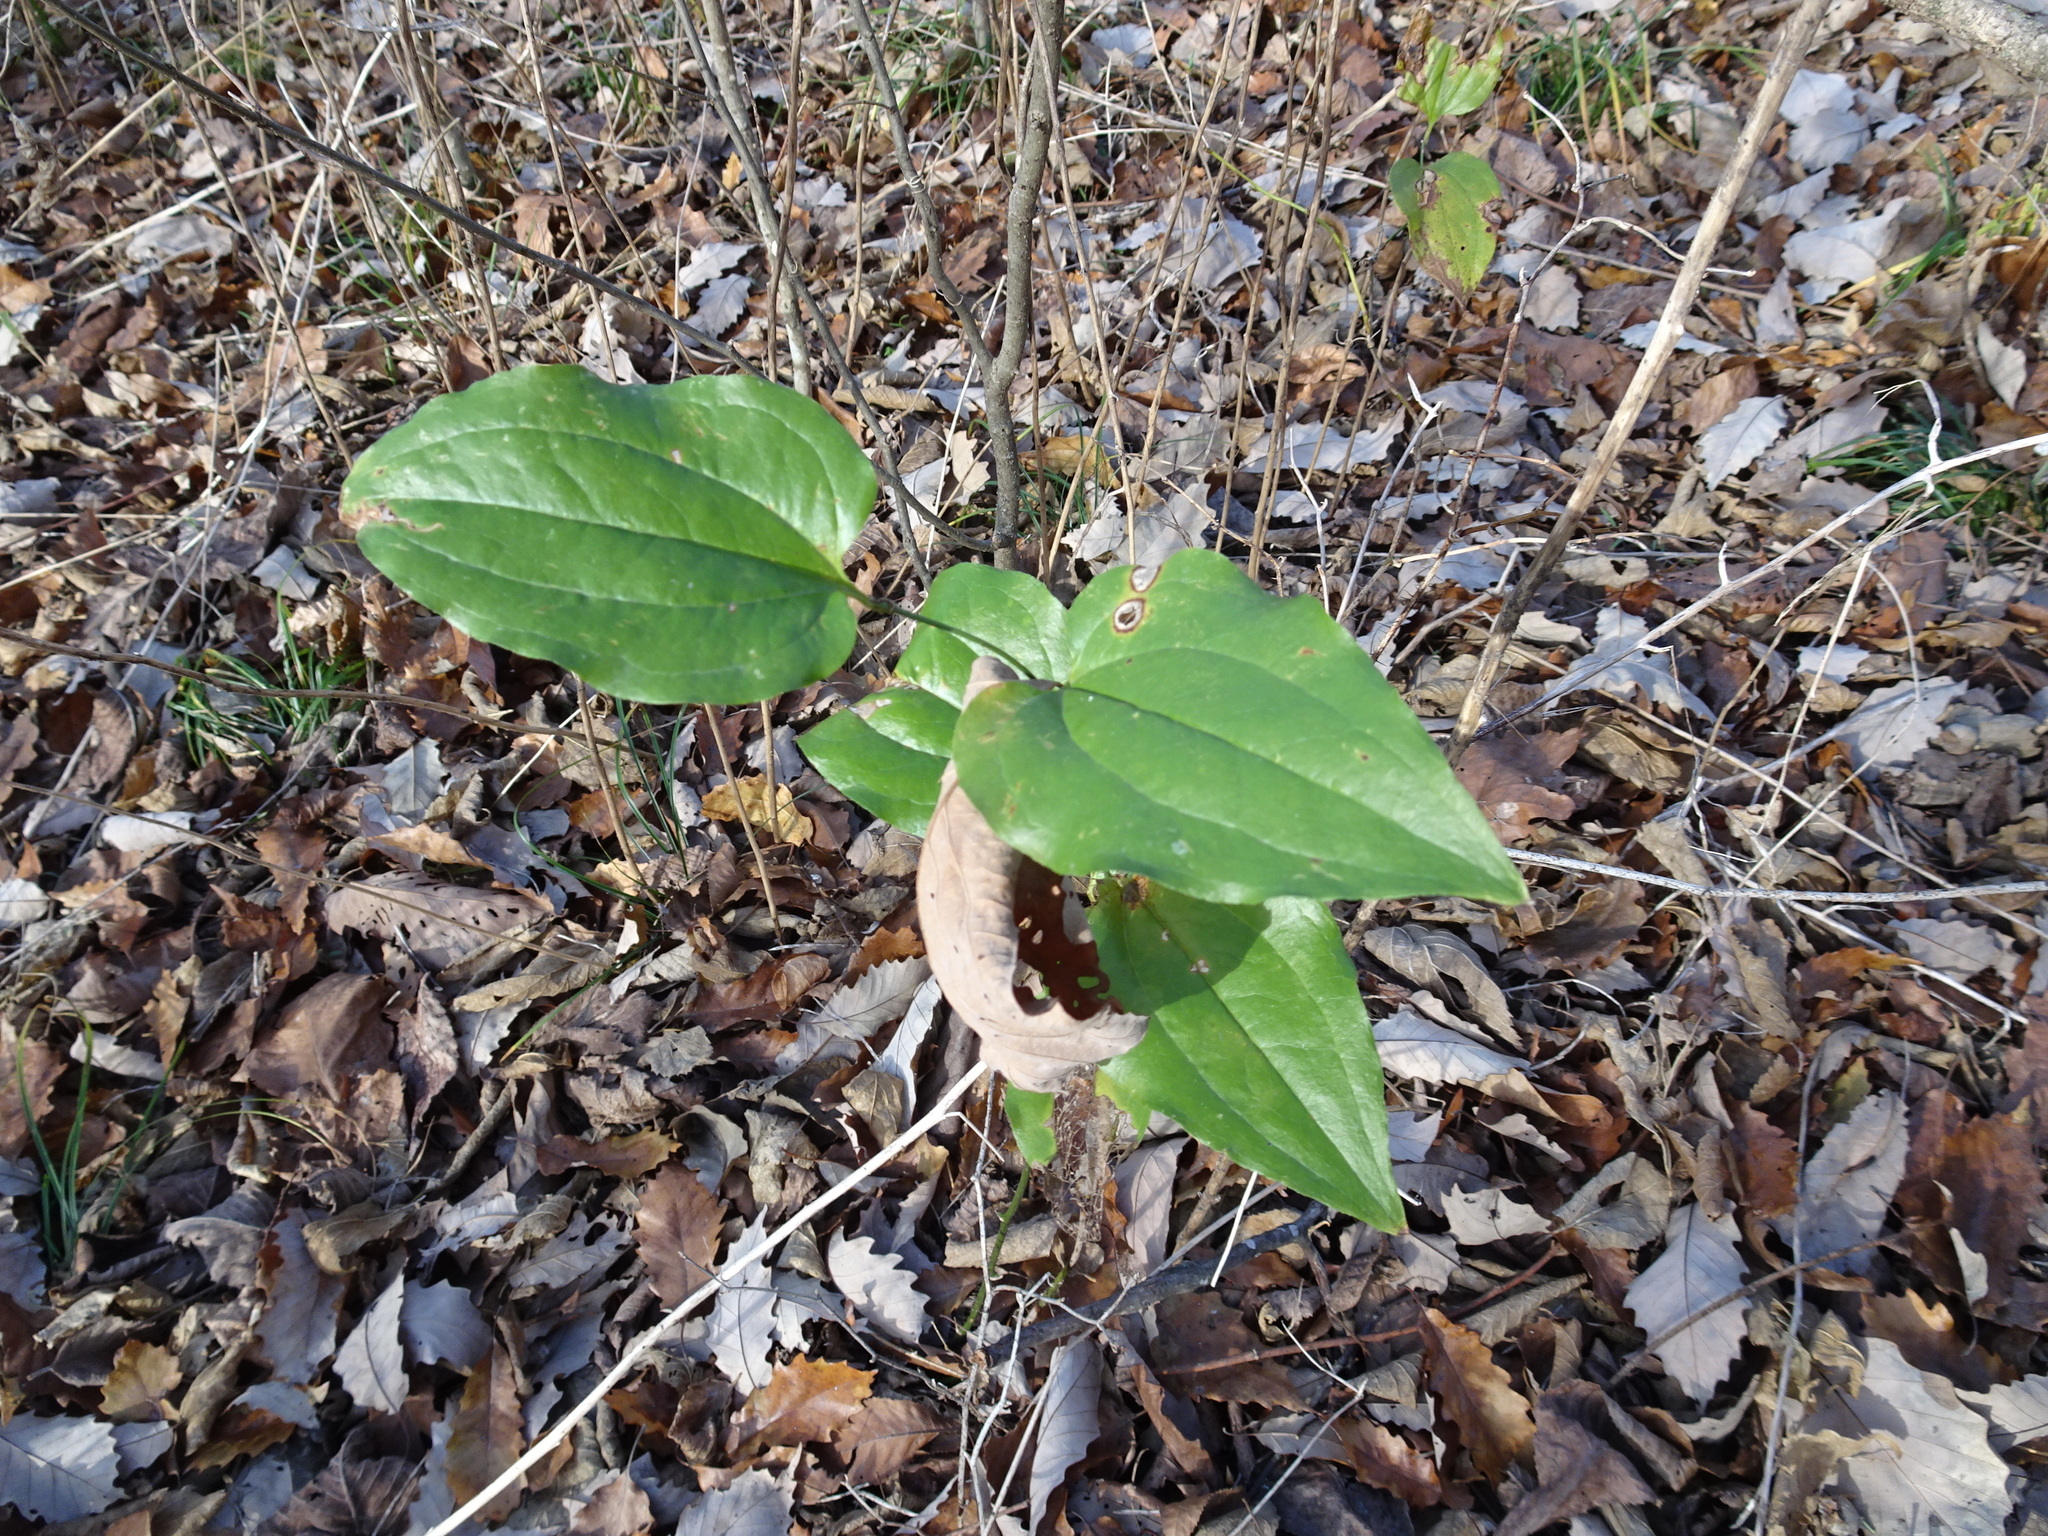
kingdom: Plantae
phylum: Tracheophyta
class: Liliopsida
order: Liliales
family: Smilacaceae
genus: Smilax
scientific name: Smilax tamnoides
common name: Hellfetter
